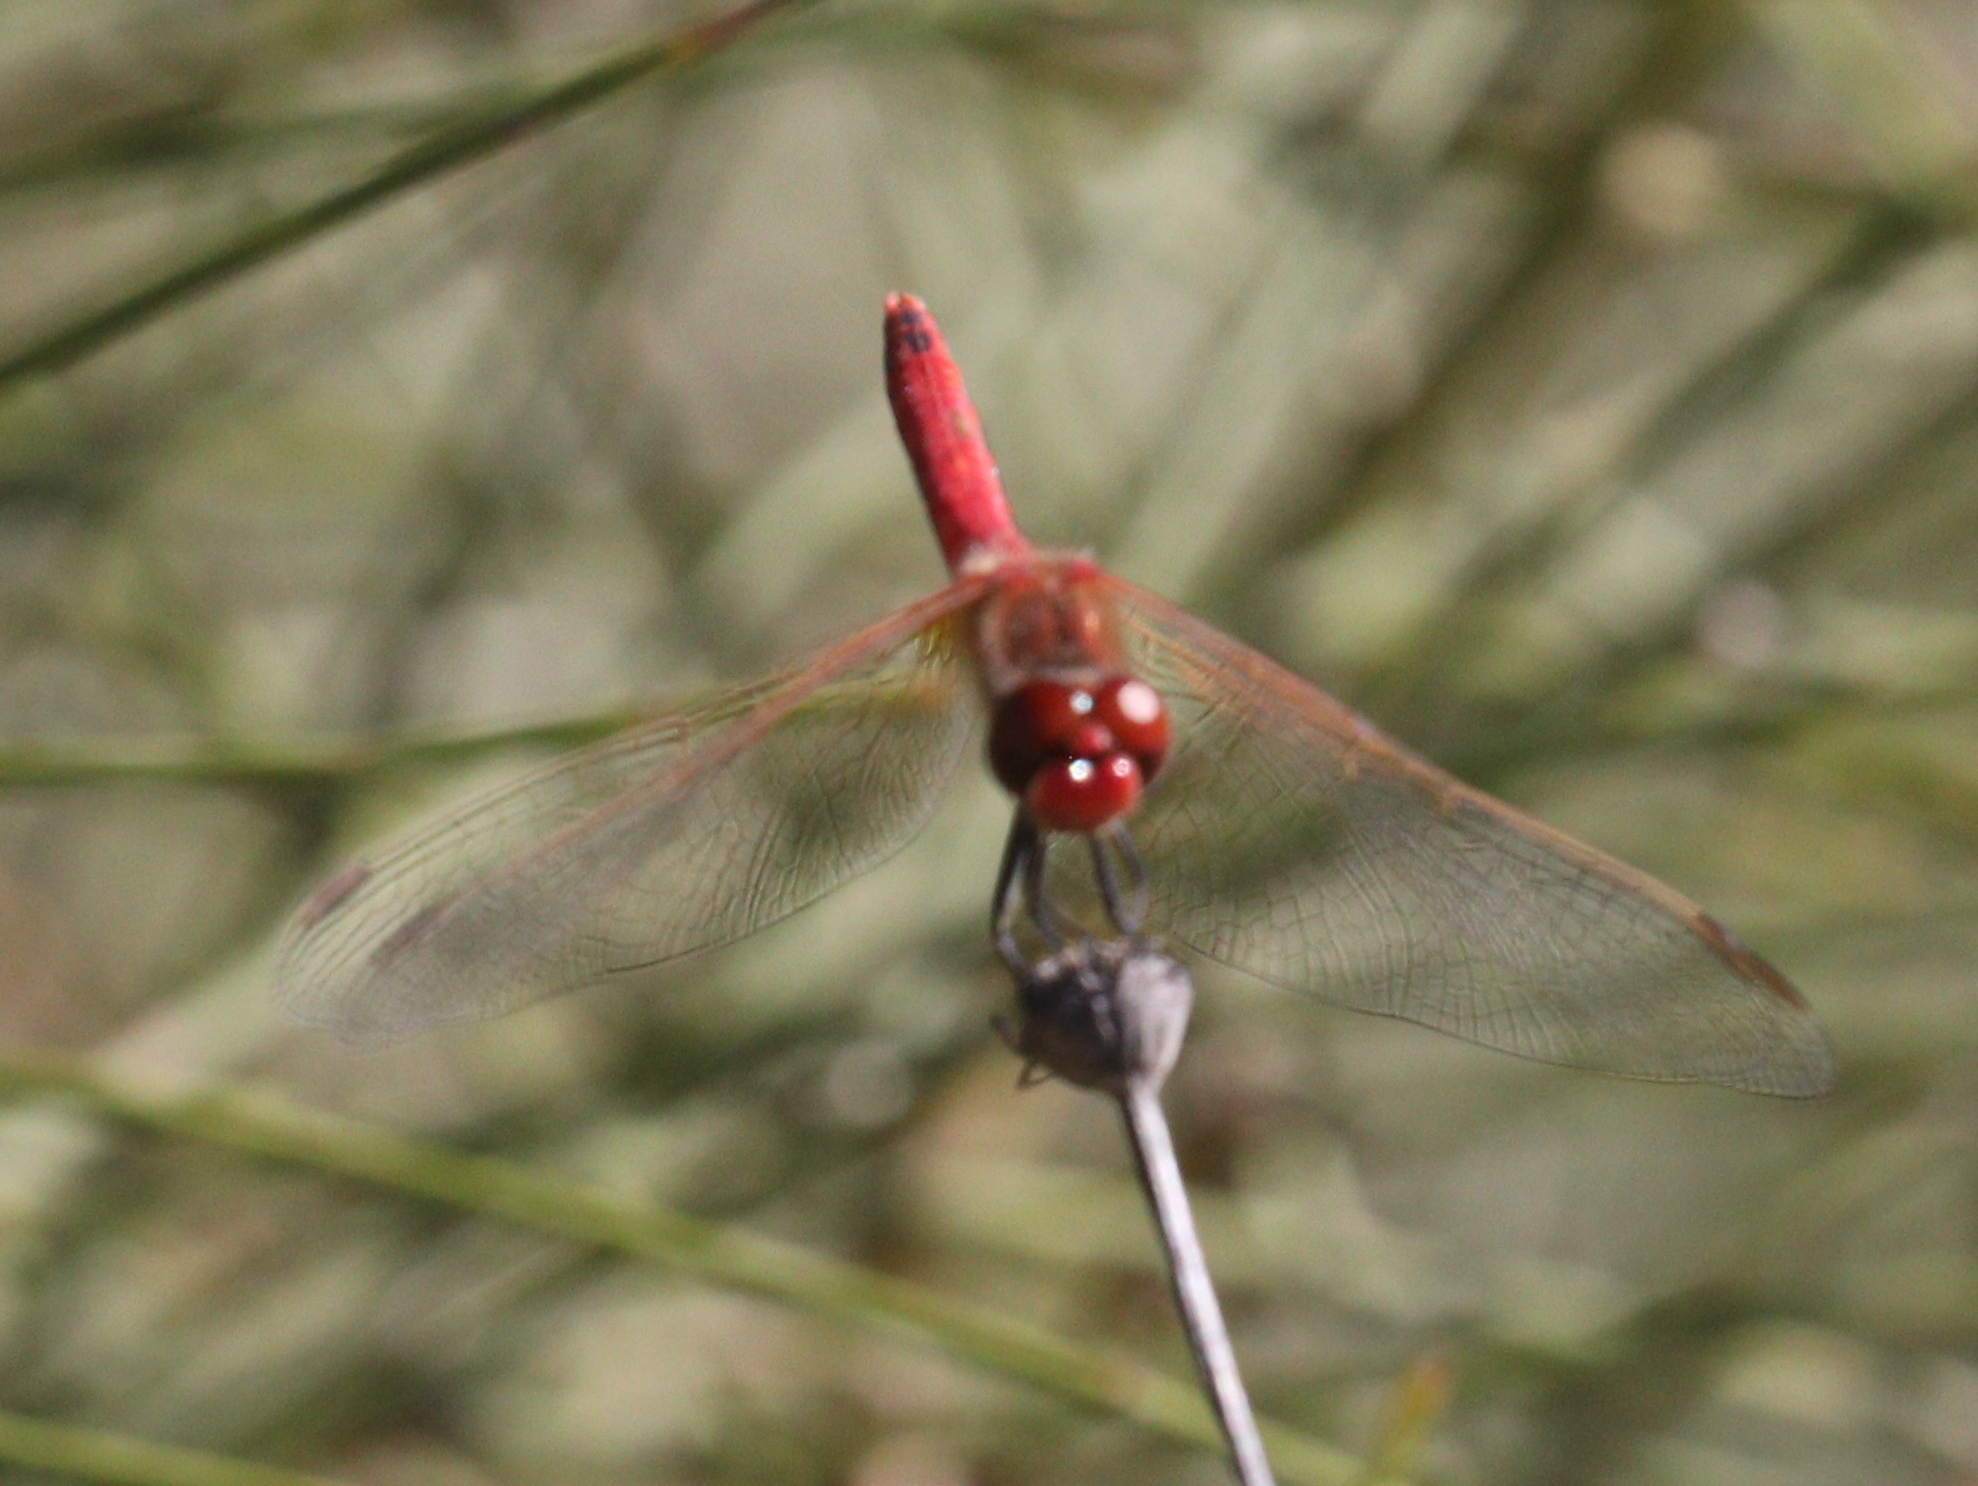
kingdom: Animalia
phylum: Arthropoda
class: Insecta
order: Odonata
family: Libellulidae
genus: Sympetrum
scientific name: Sympetrum fonscolombii
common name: Red-veined darter
